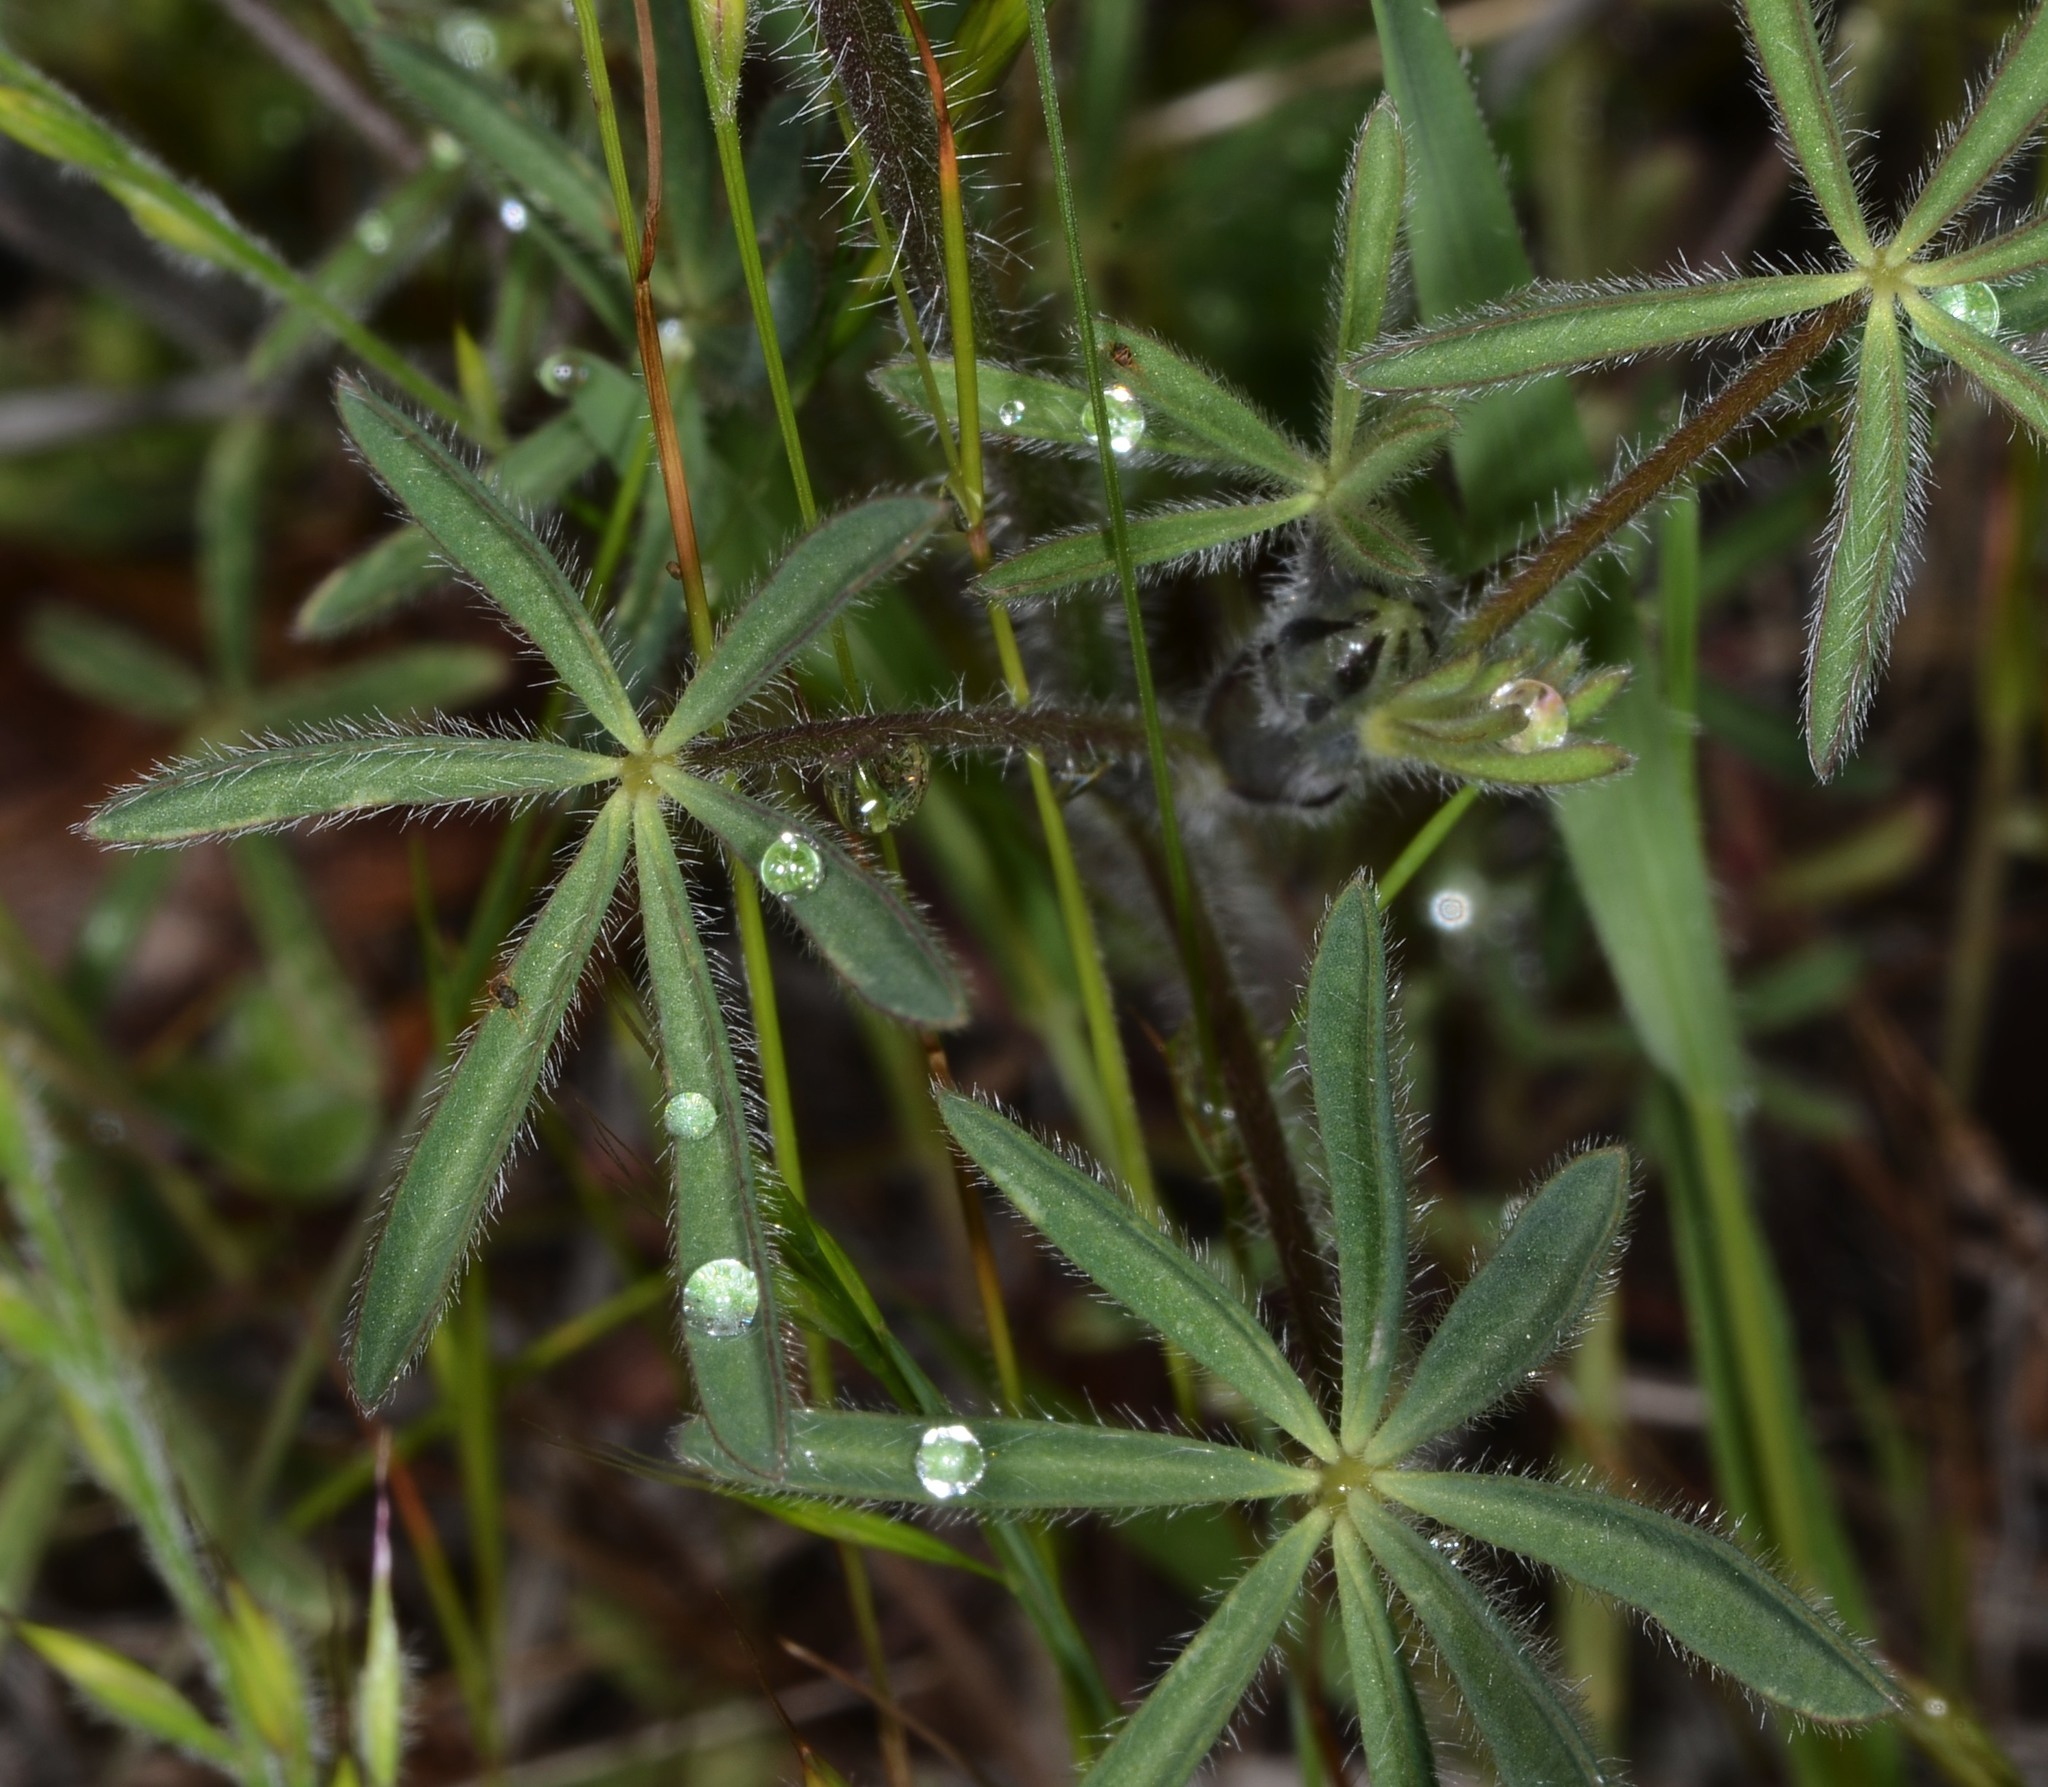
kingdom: Plantae
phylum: Tracheophyta
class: Magnoliopsida
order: Fabales
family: Fabaceae
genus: Lupinus
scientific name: Lupinus bicolor
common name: Miniature lupine
